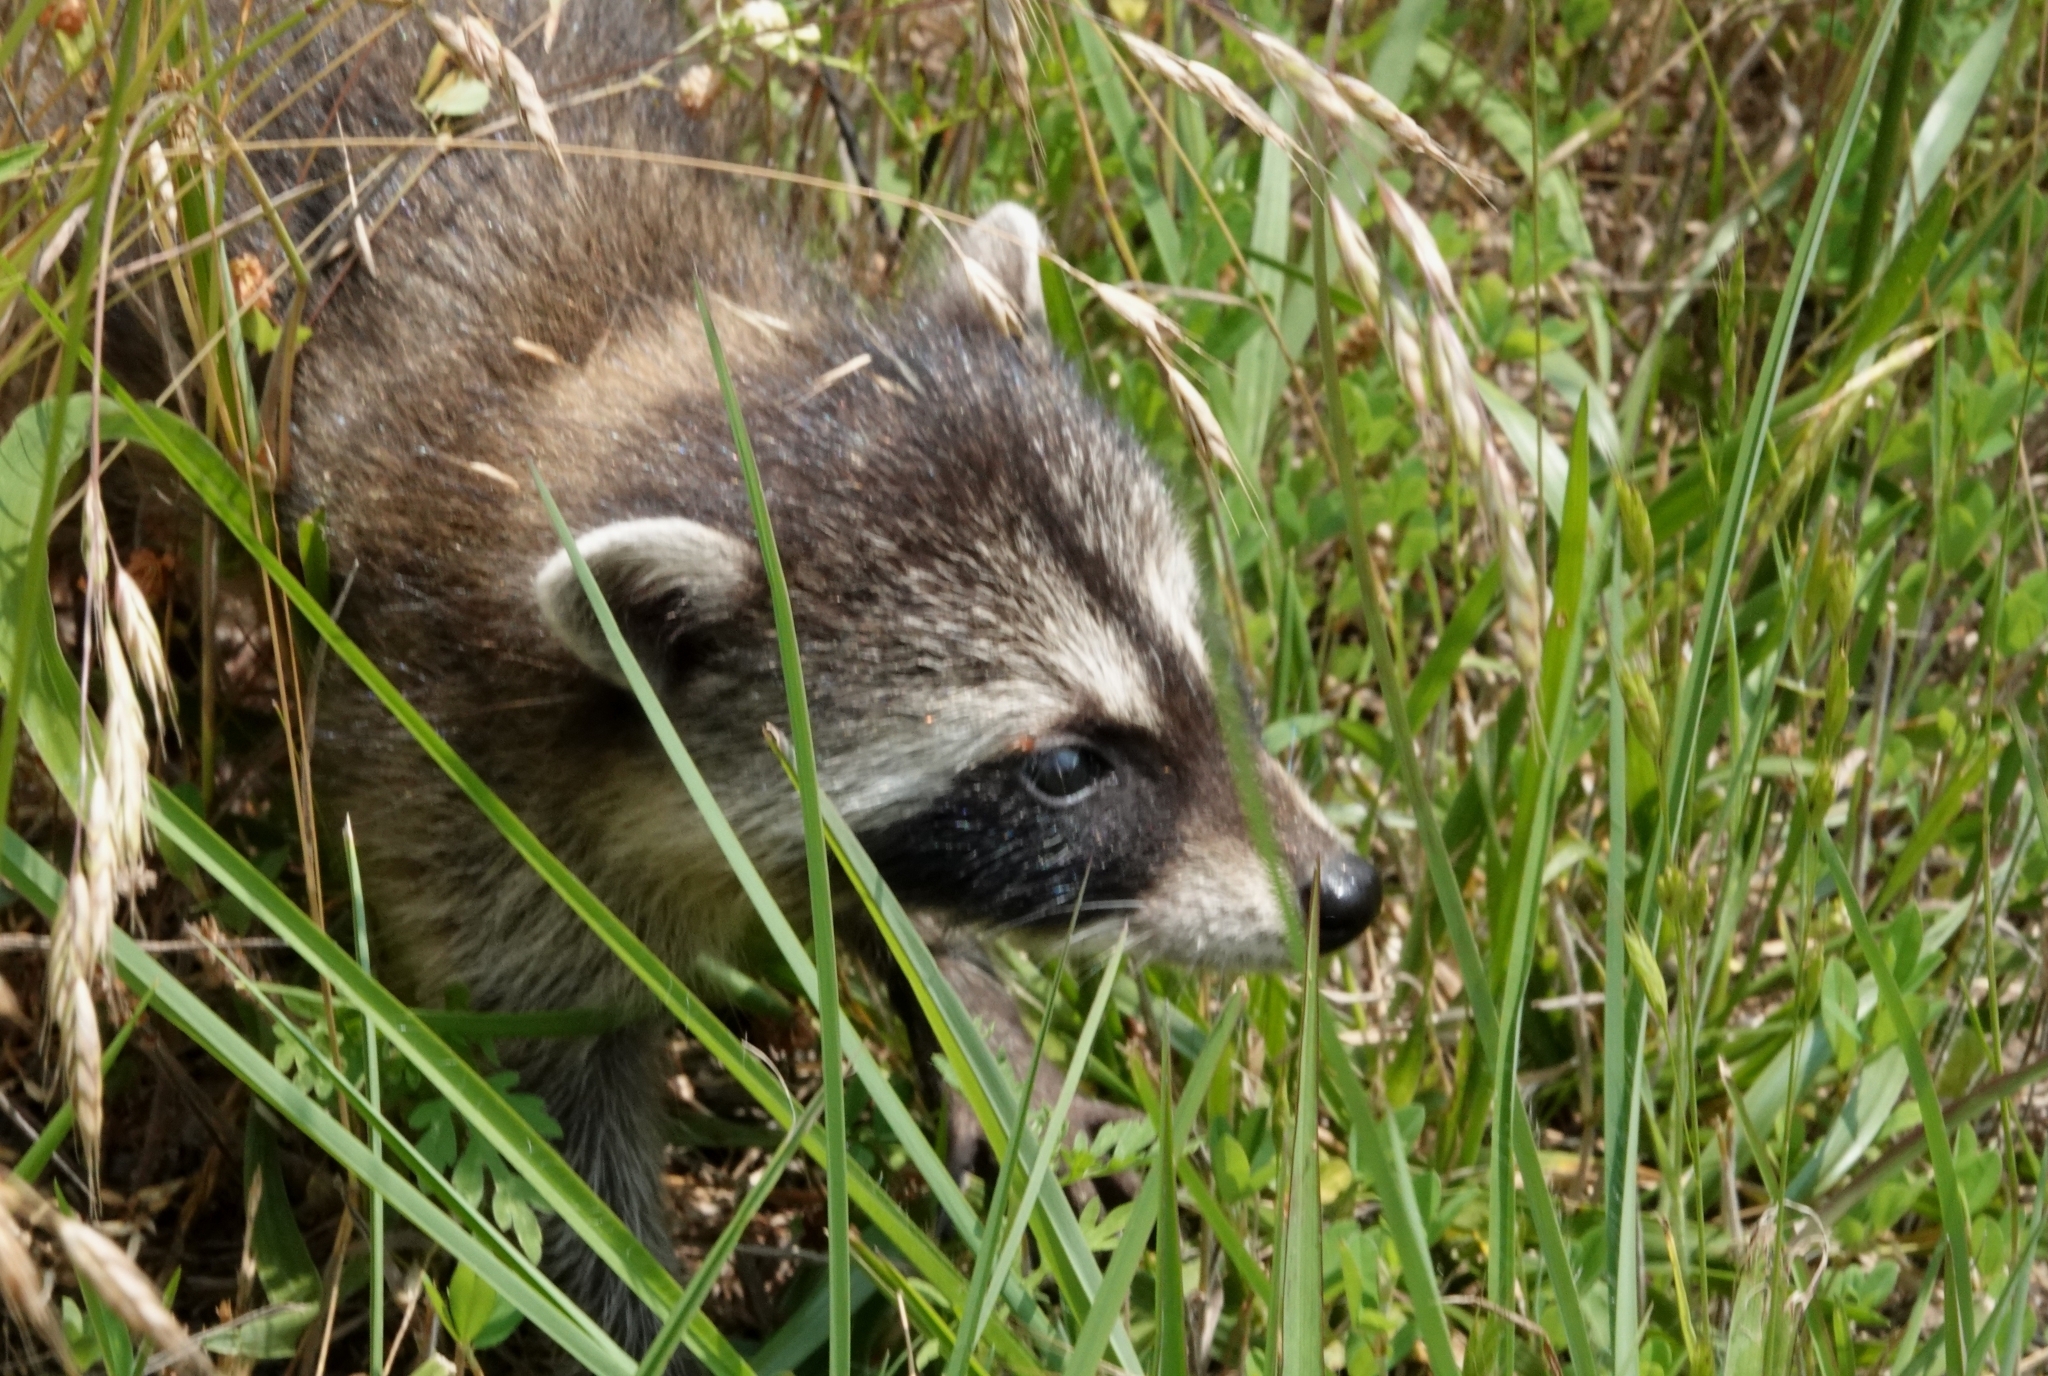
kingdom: Animalia
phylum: Chordata
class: Mammalia
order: Carnivora
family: Procyonidae
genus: Procyon
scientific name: Procyon lotor
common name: Raccoon
